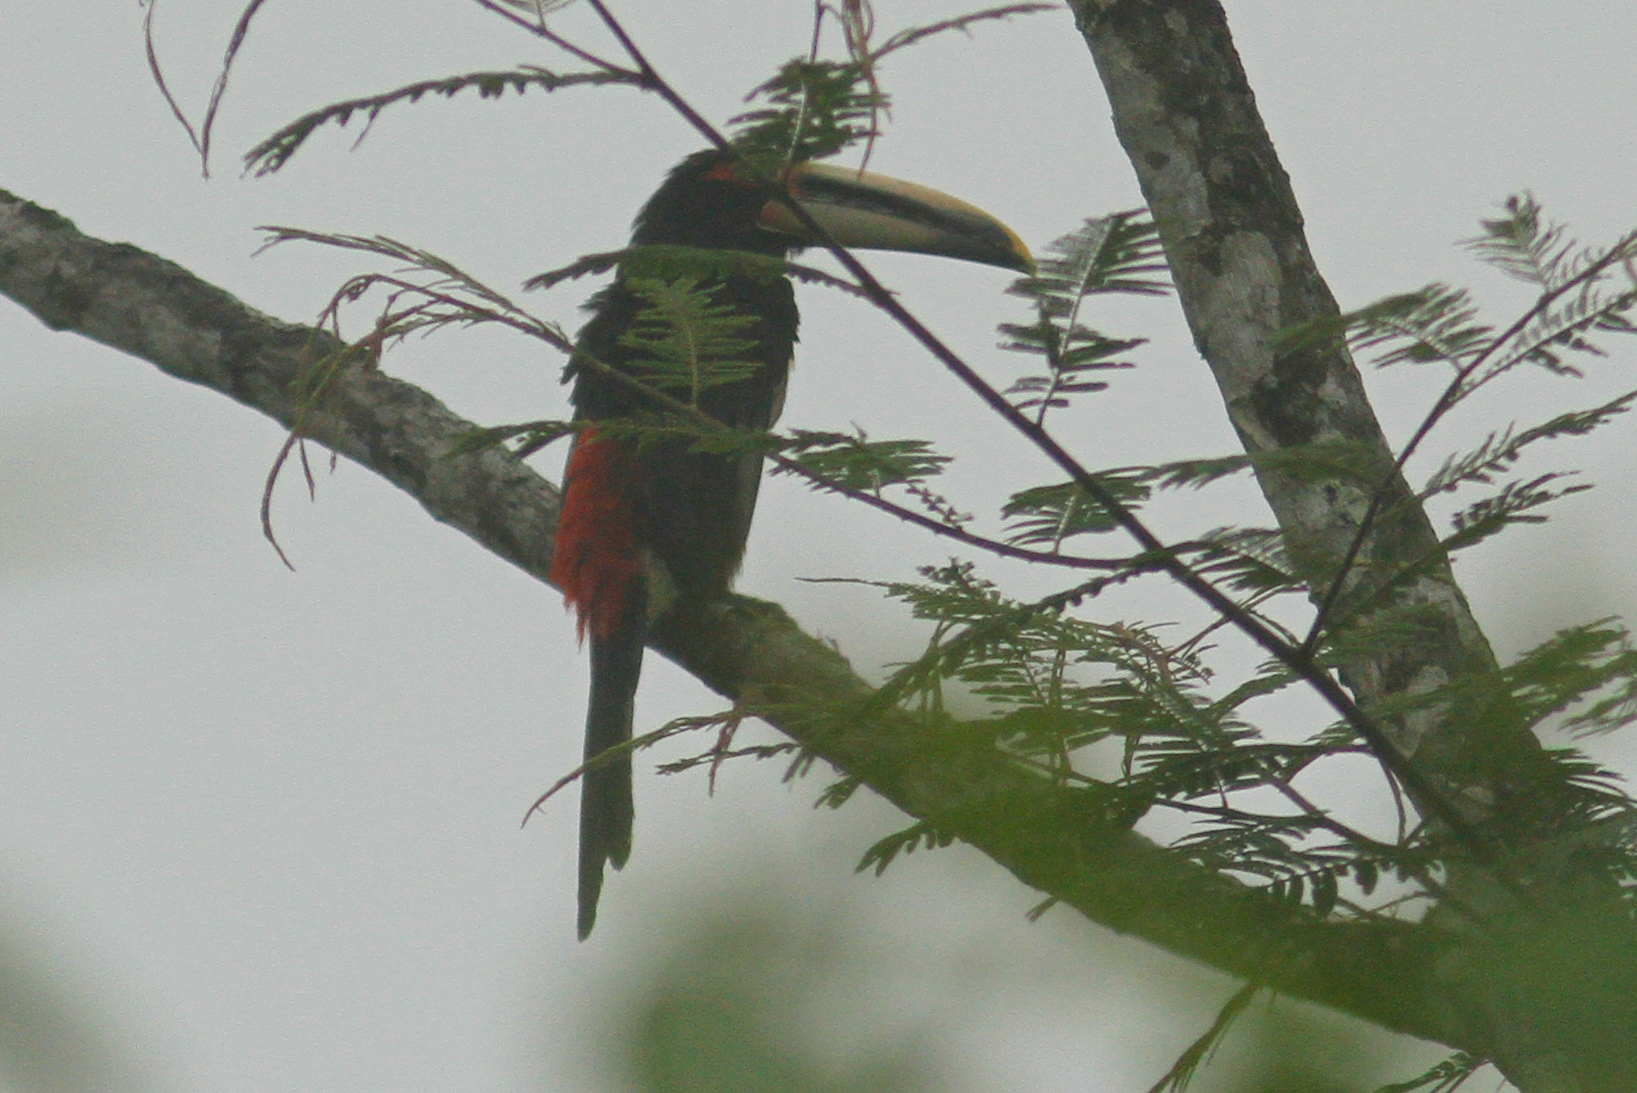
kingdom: Animalia
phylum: Chordata
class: Aves
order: Piciformes
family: Ramphastidae
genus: Pteroglossus
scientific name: Pteroglossus torquatus
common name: Collared aracari
